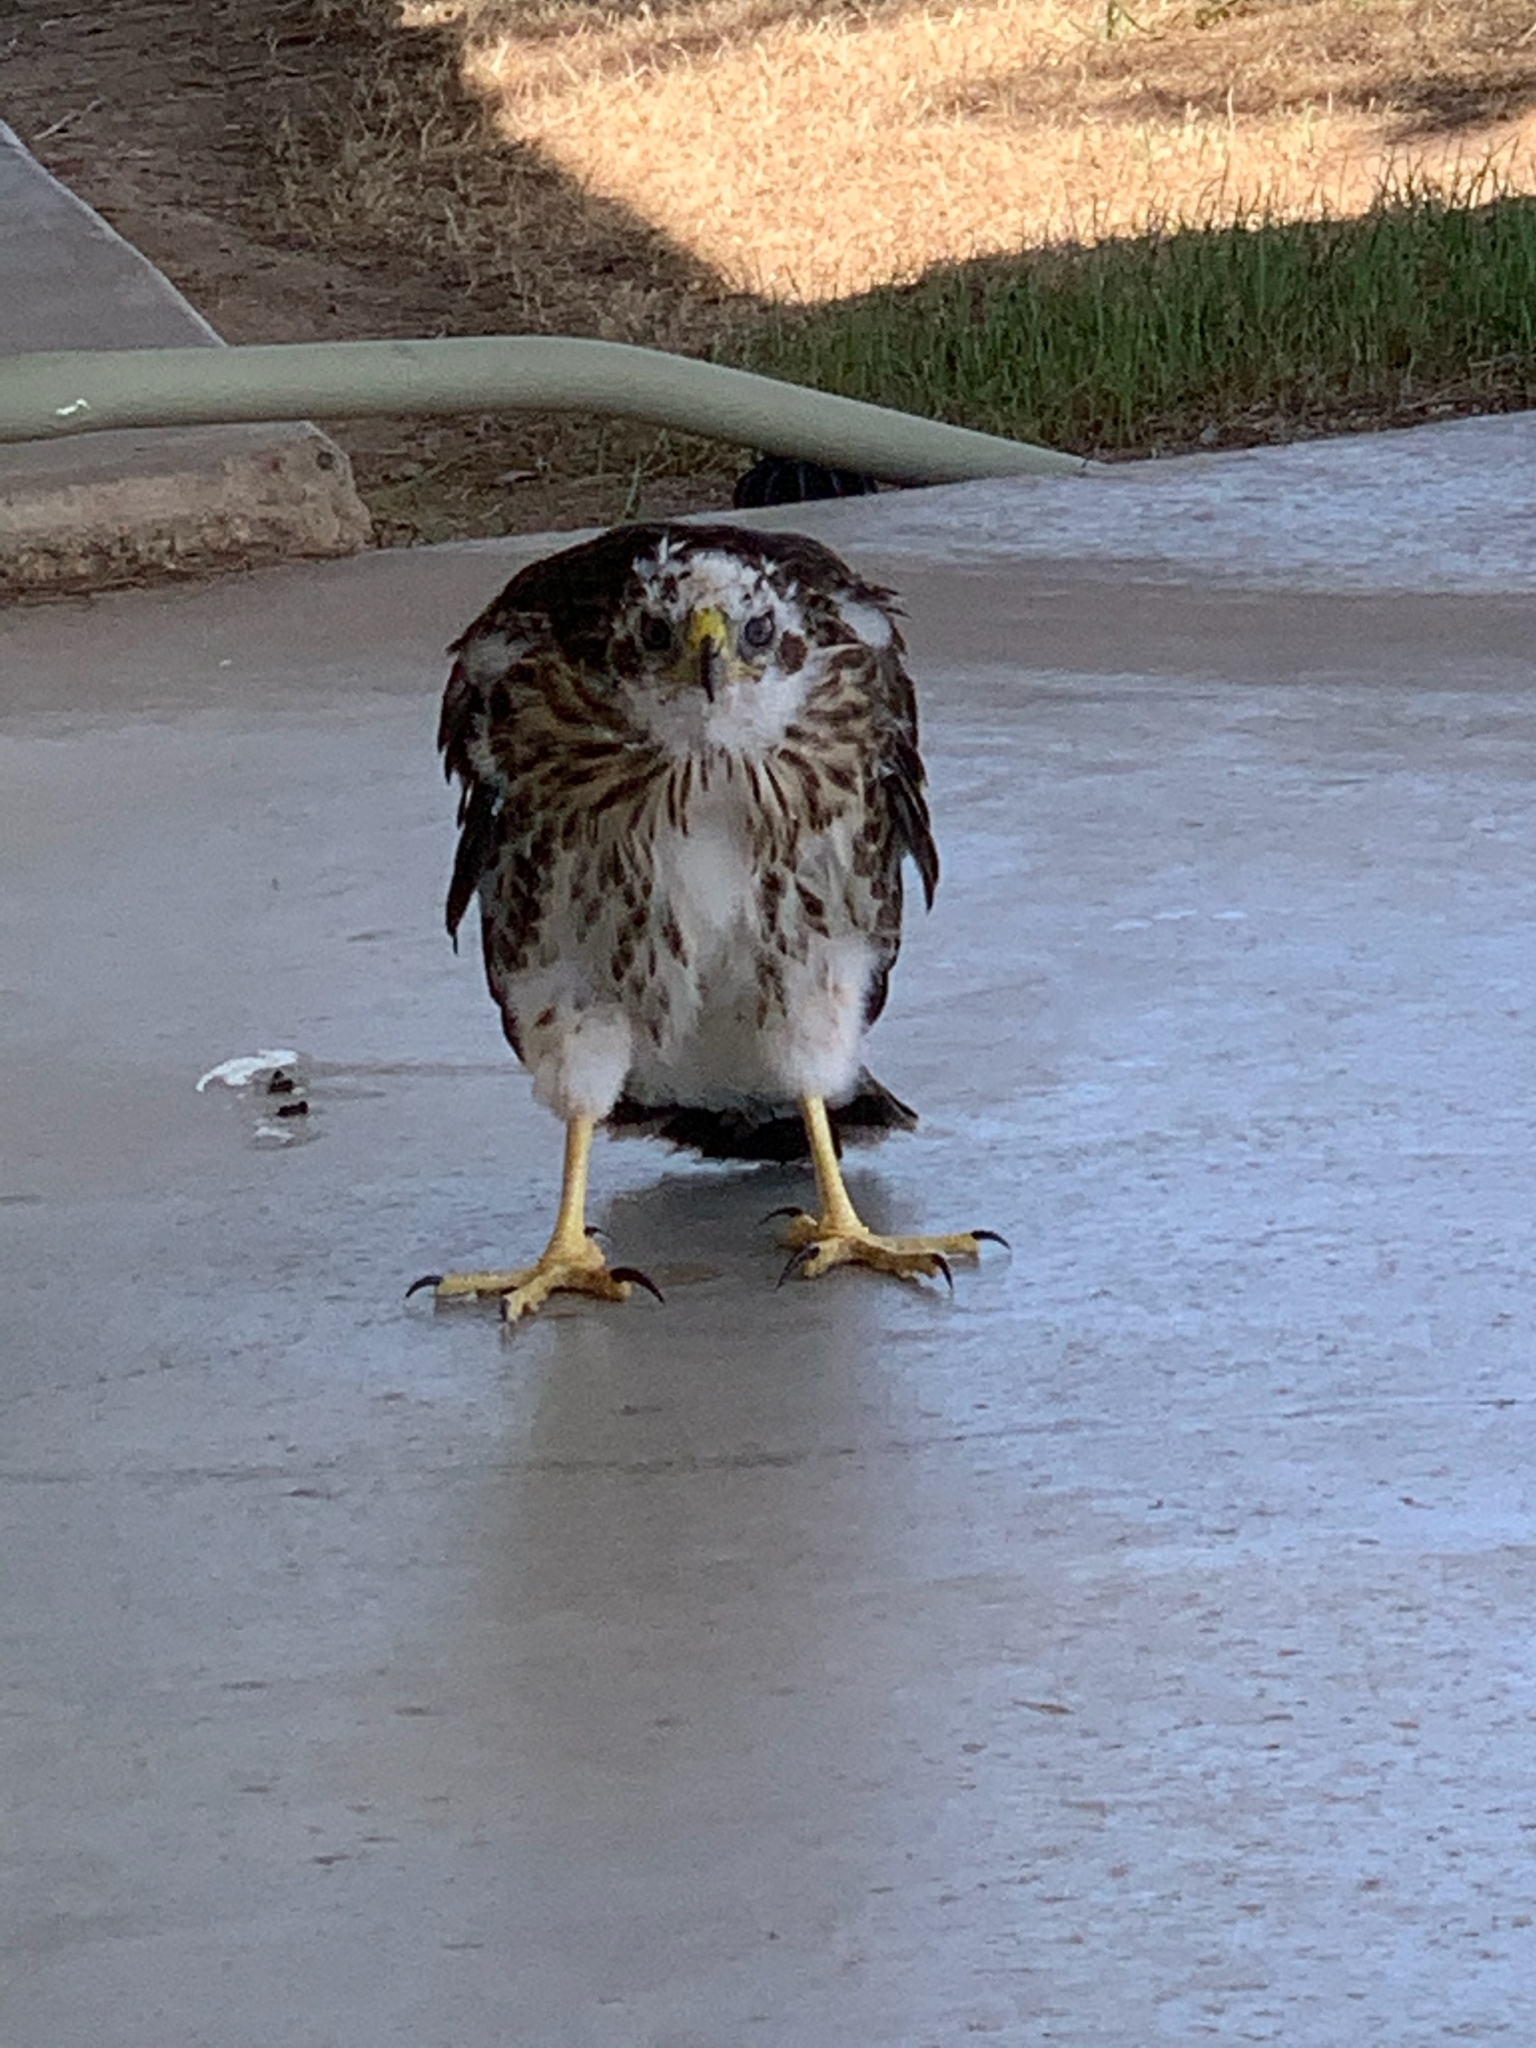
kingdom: Animalia
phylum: Chordata
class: Aves
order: Accipitriformes
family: Accipitridae
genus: Accipiter
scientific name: Accipiter cooperii
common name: Cooper's hawk
